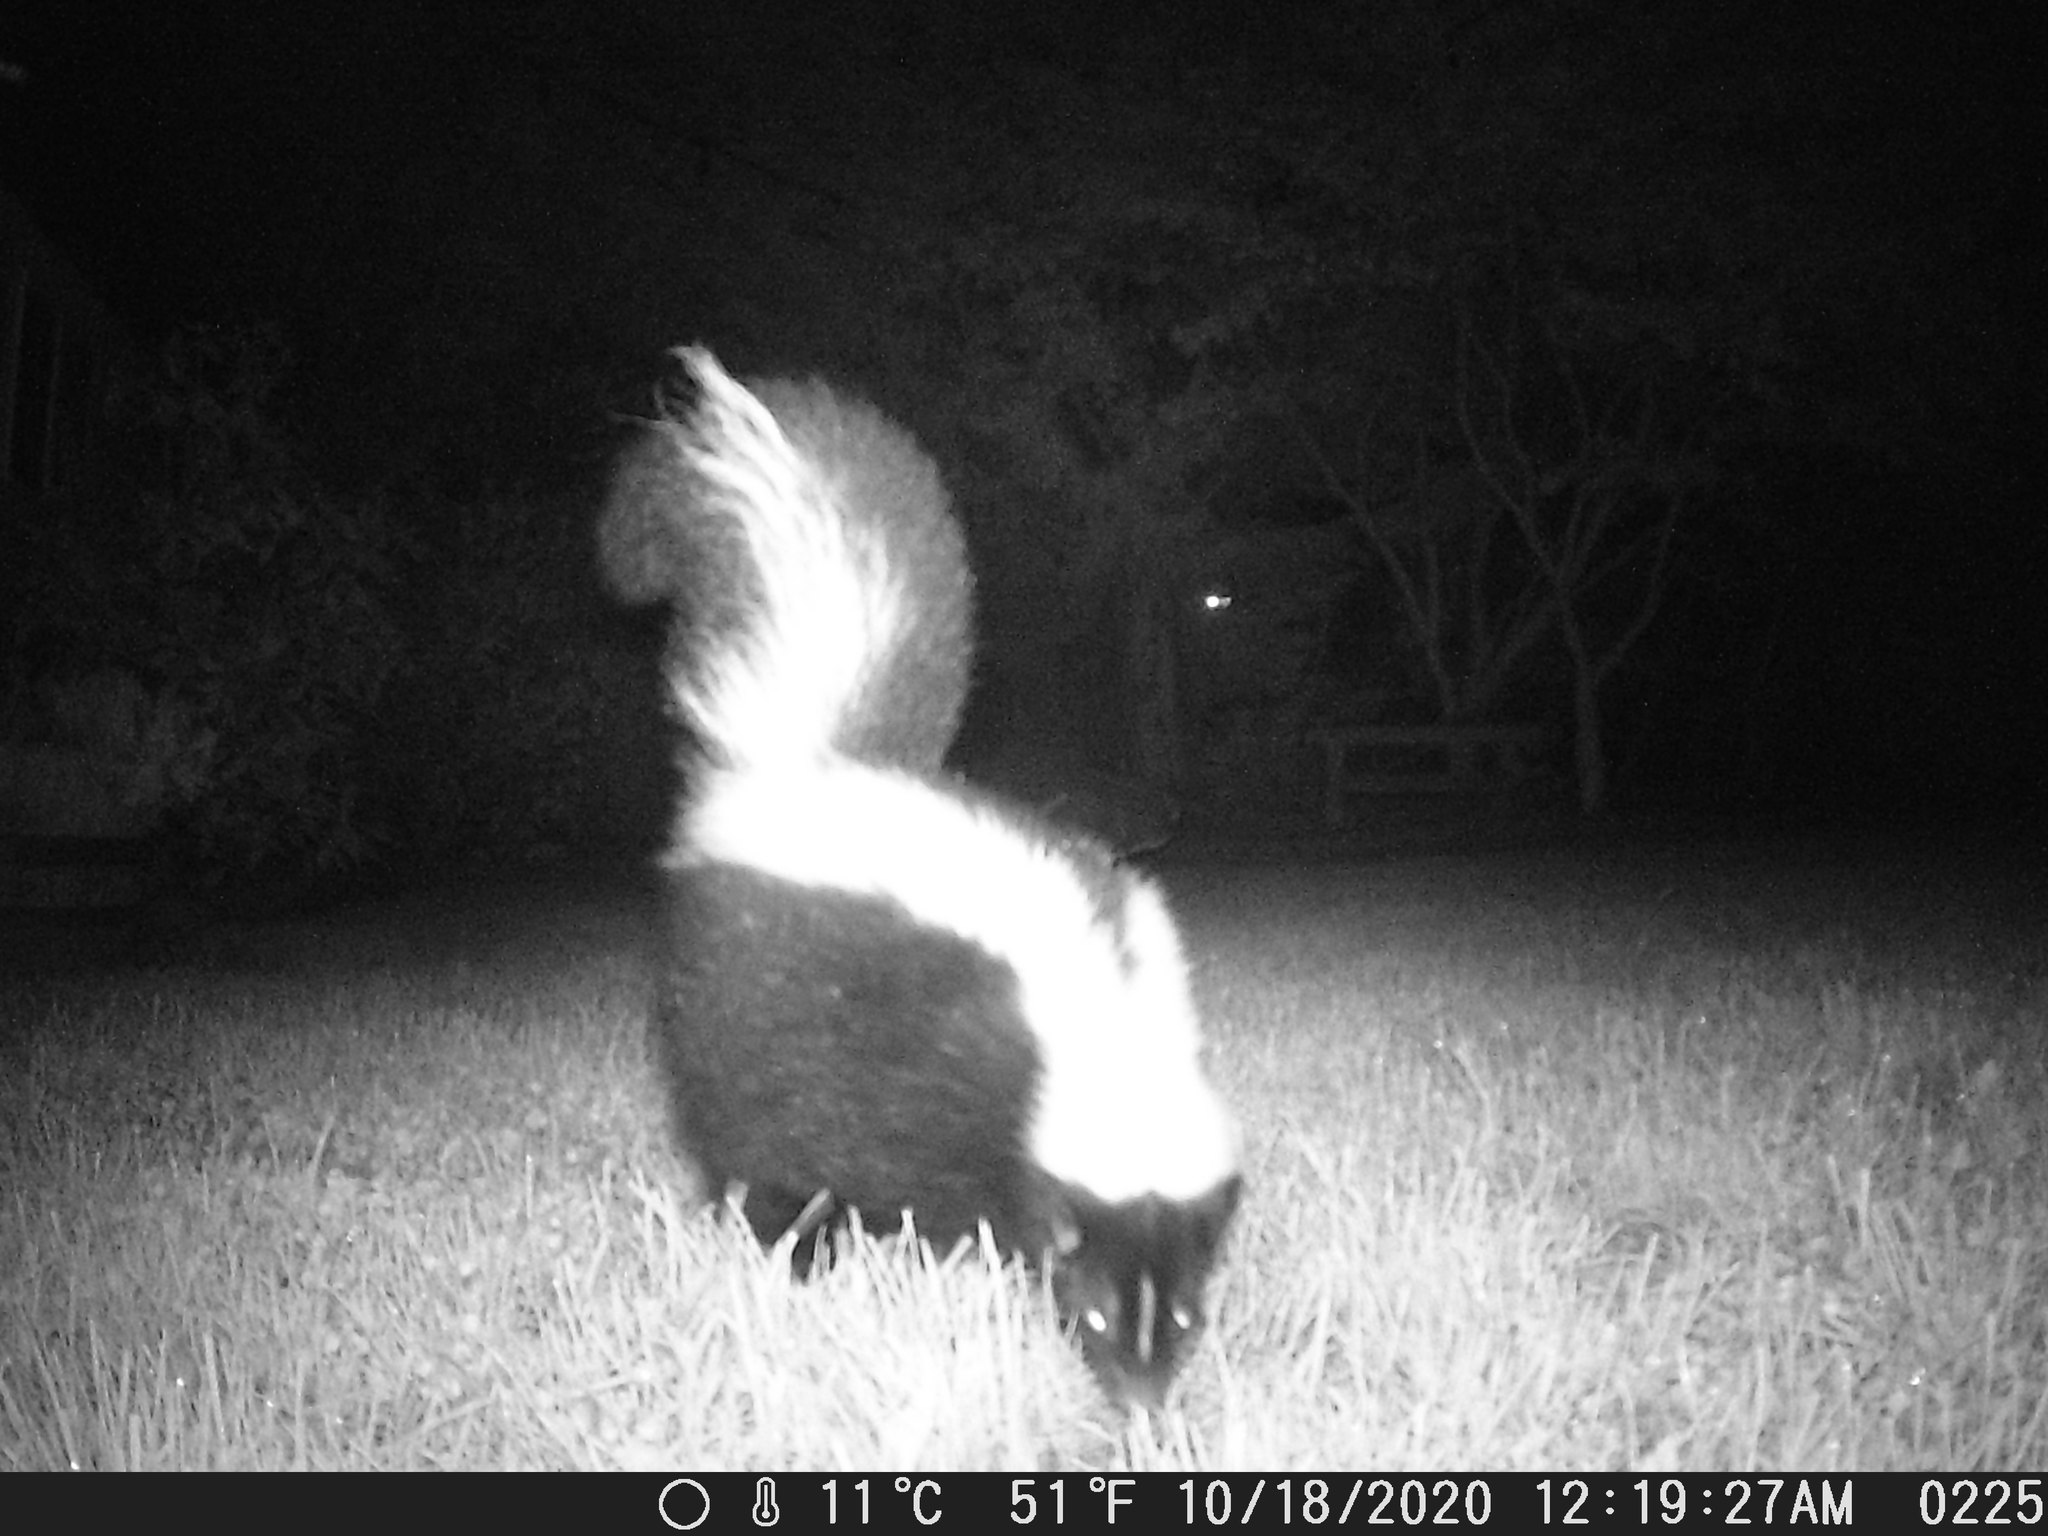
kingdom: Animalia
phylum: Chordata
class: Mammalia
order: Carnivora
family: Mephitidae
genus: Mephitis
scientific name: Mephitis mephitis
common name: Striped skunk
